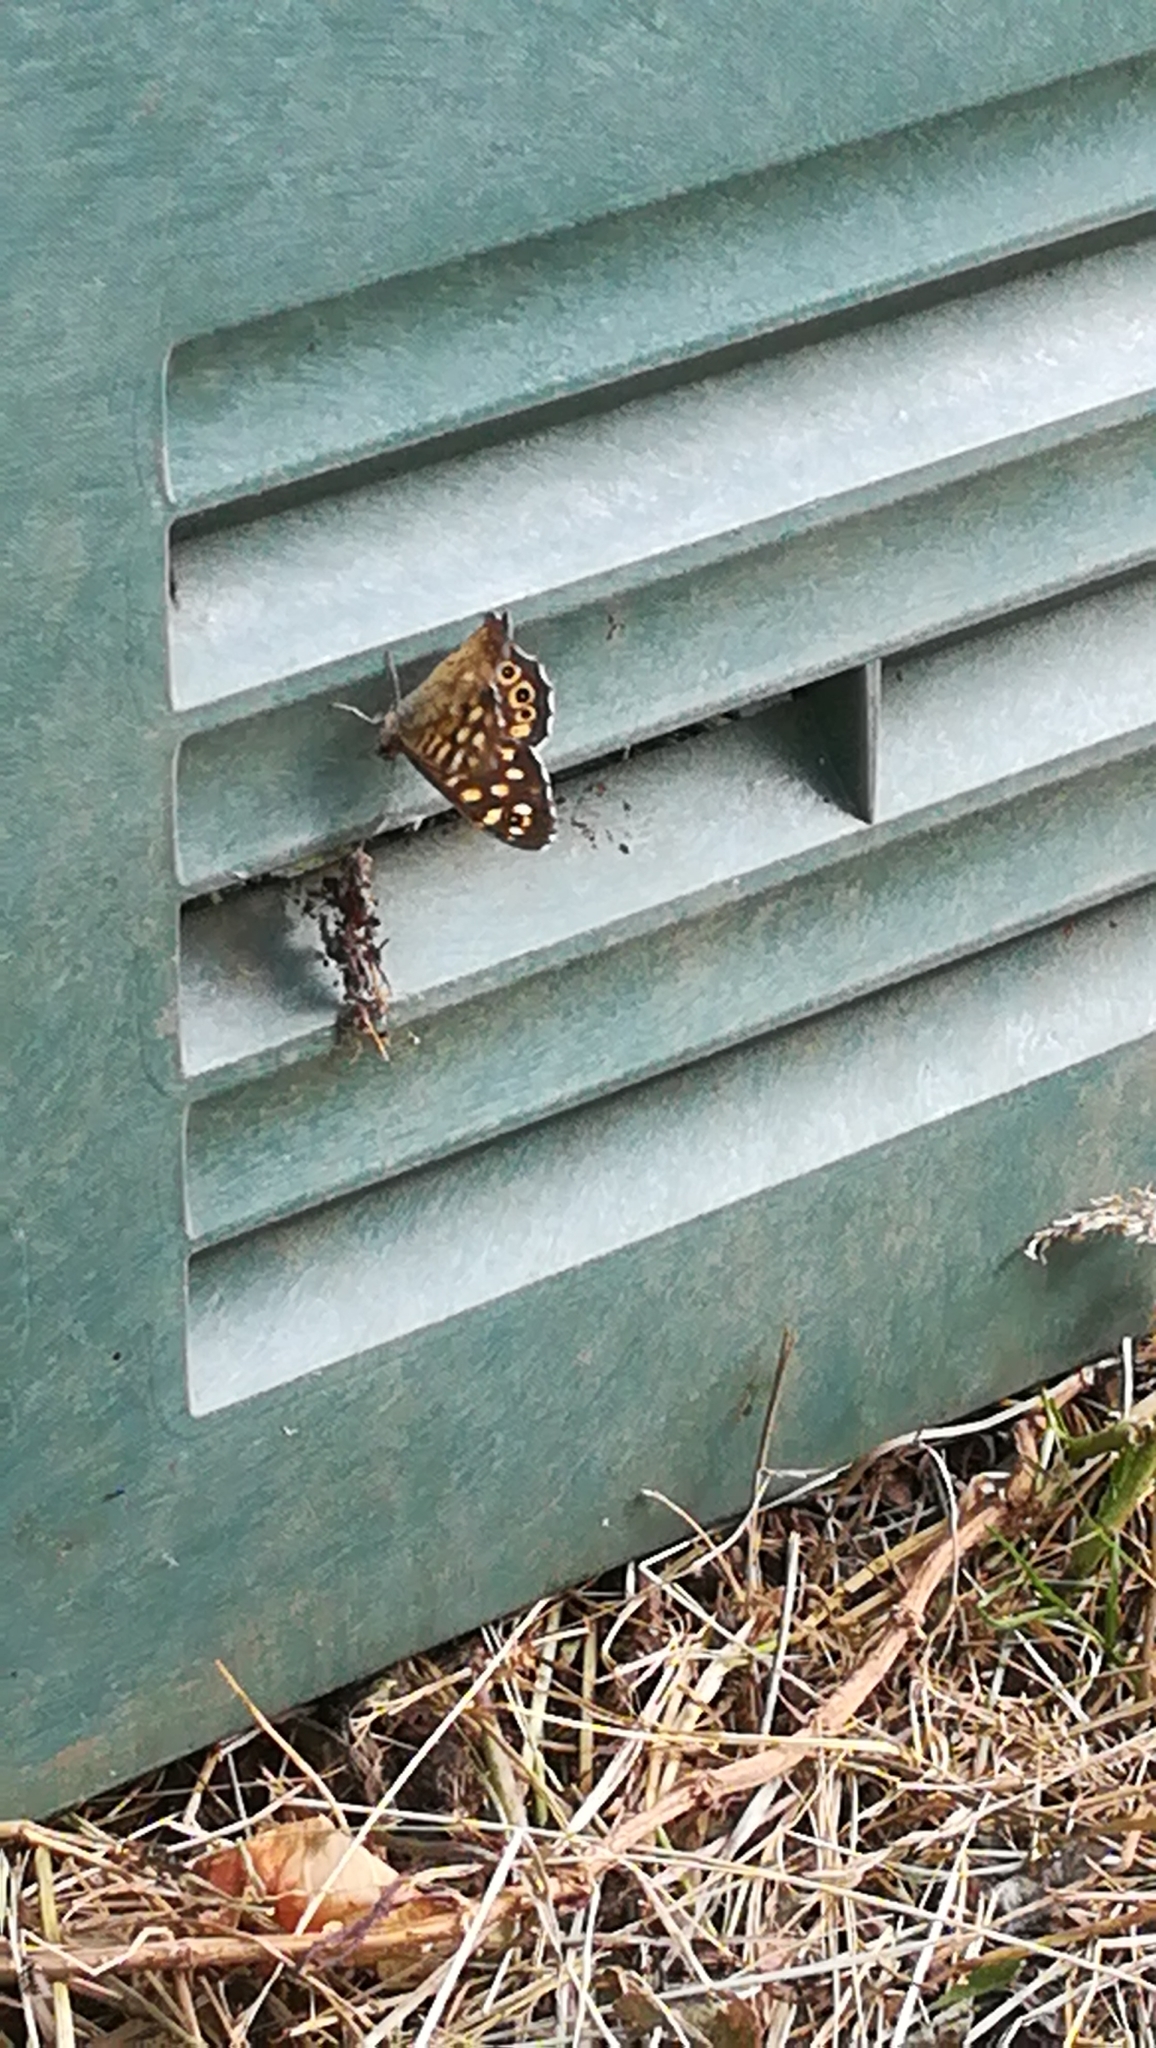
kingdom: Animalia
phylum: Arthropoda
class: Insecta
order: Lepidoptera
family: Nymphalidae
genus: Pararge
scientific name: Pararge aegeria
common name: Speckled wood
